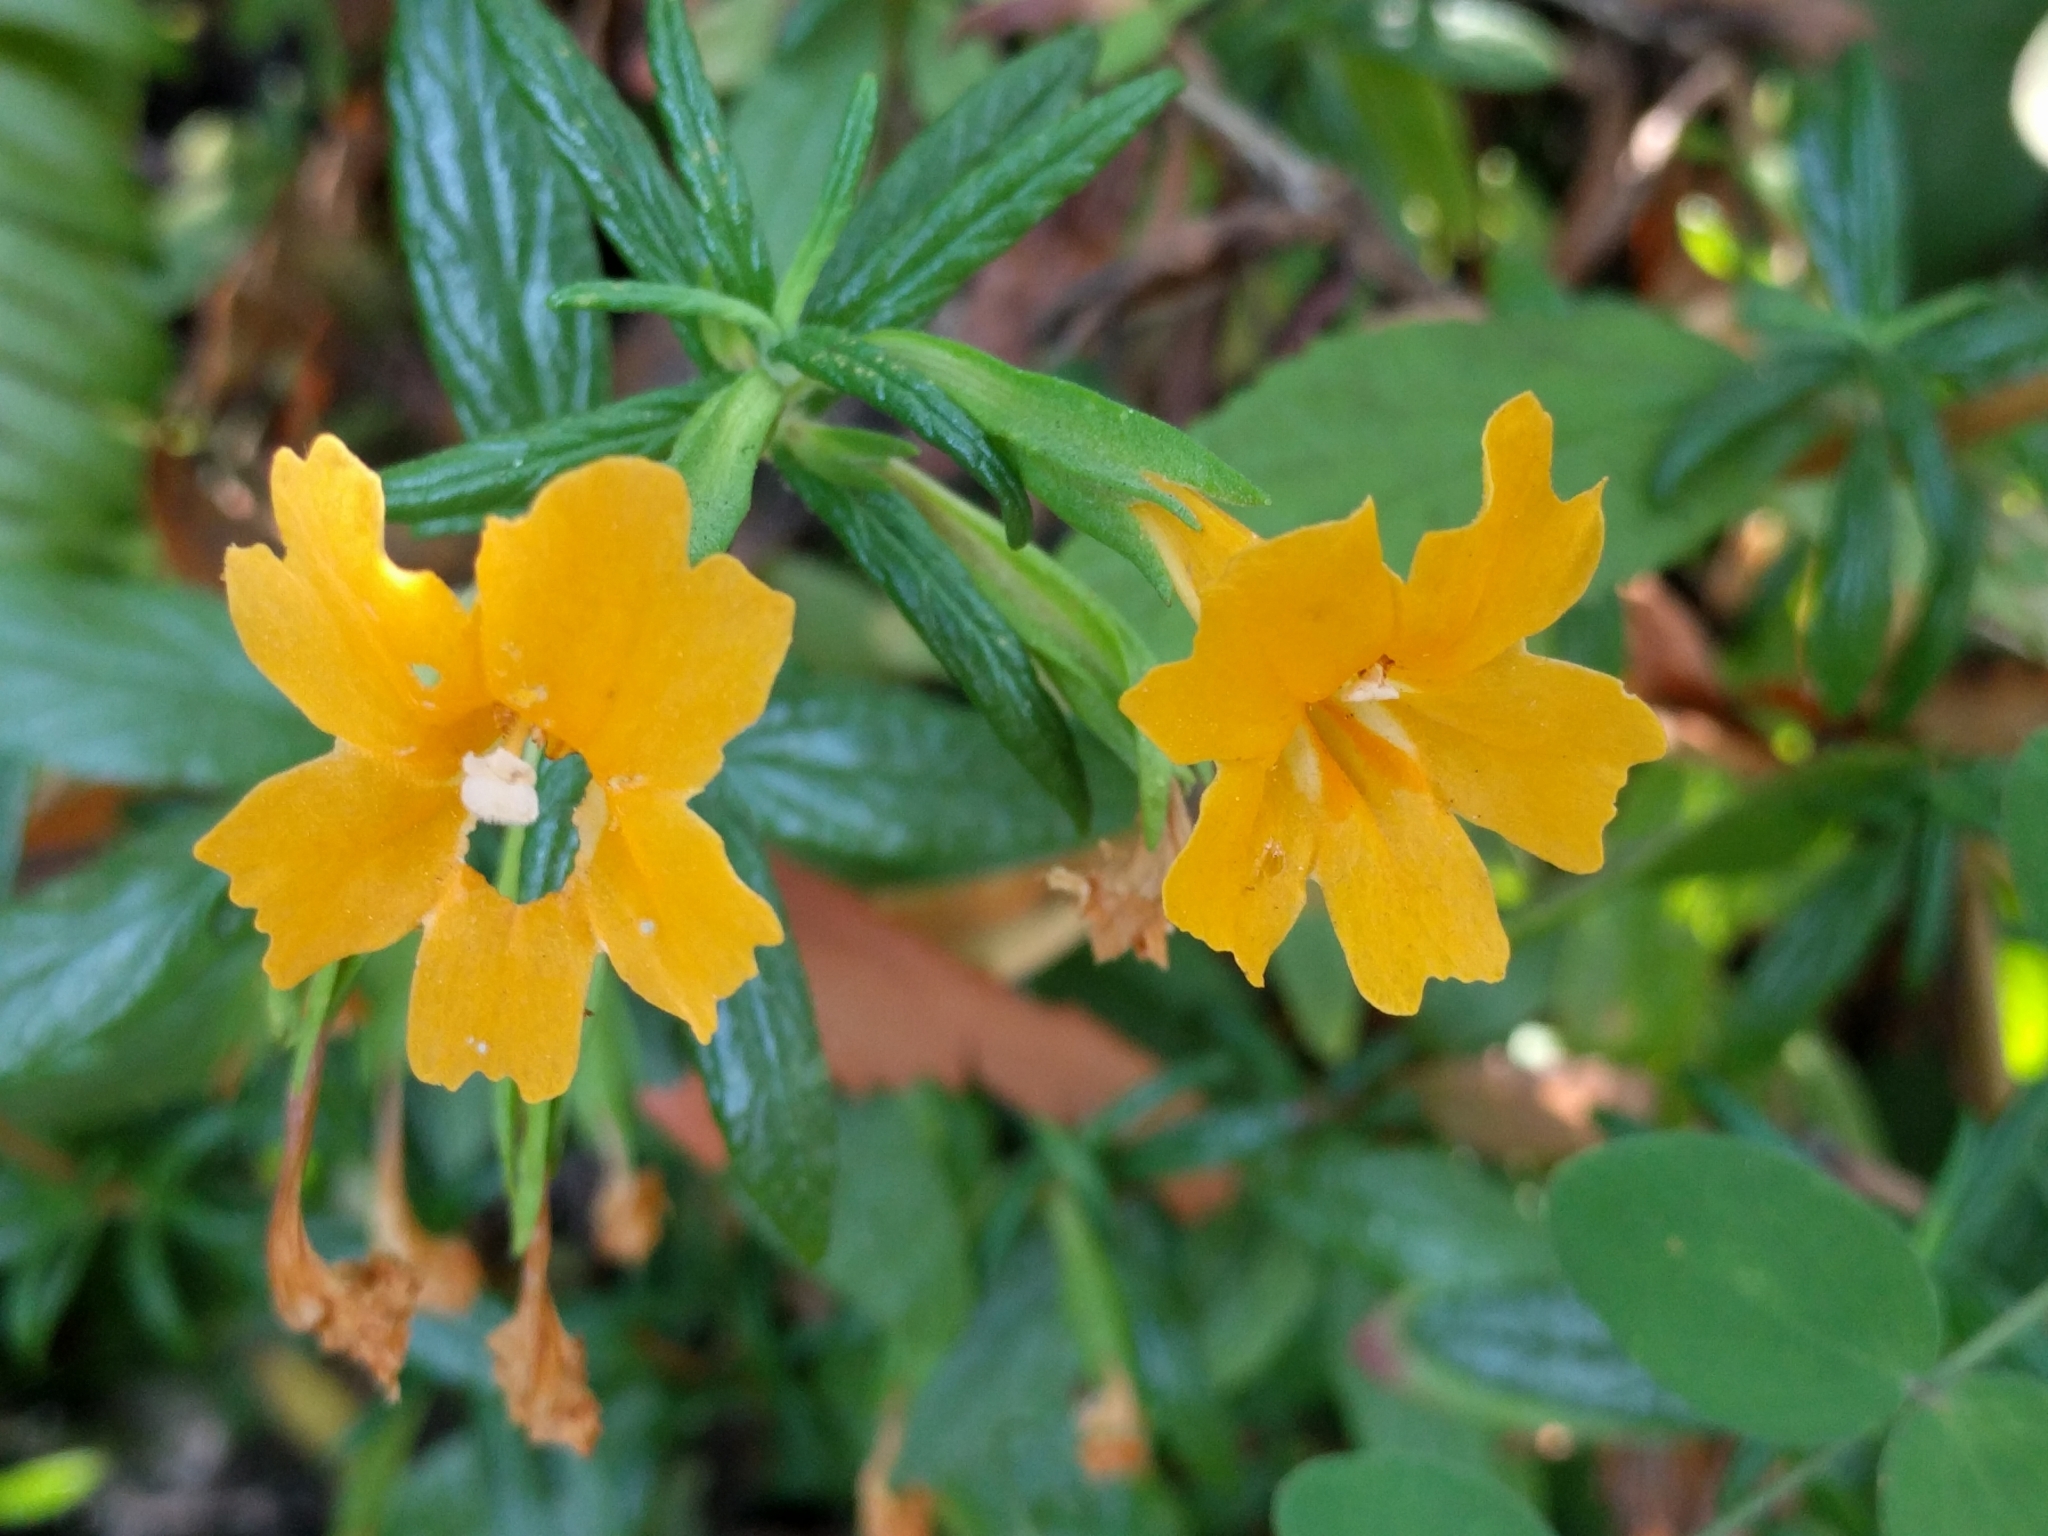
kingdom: Plantae
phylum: Tracheophyta
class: Magnoliopsida
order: Lamiales
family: Phrymaceae
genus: Diplacus
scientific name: Diplacus aurantiacus
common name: Bush monkey-flower
